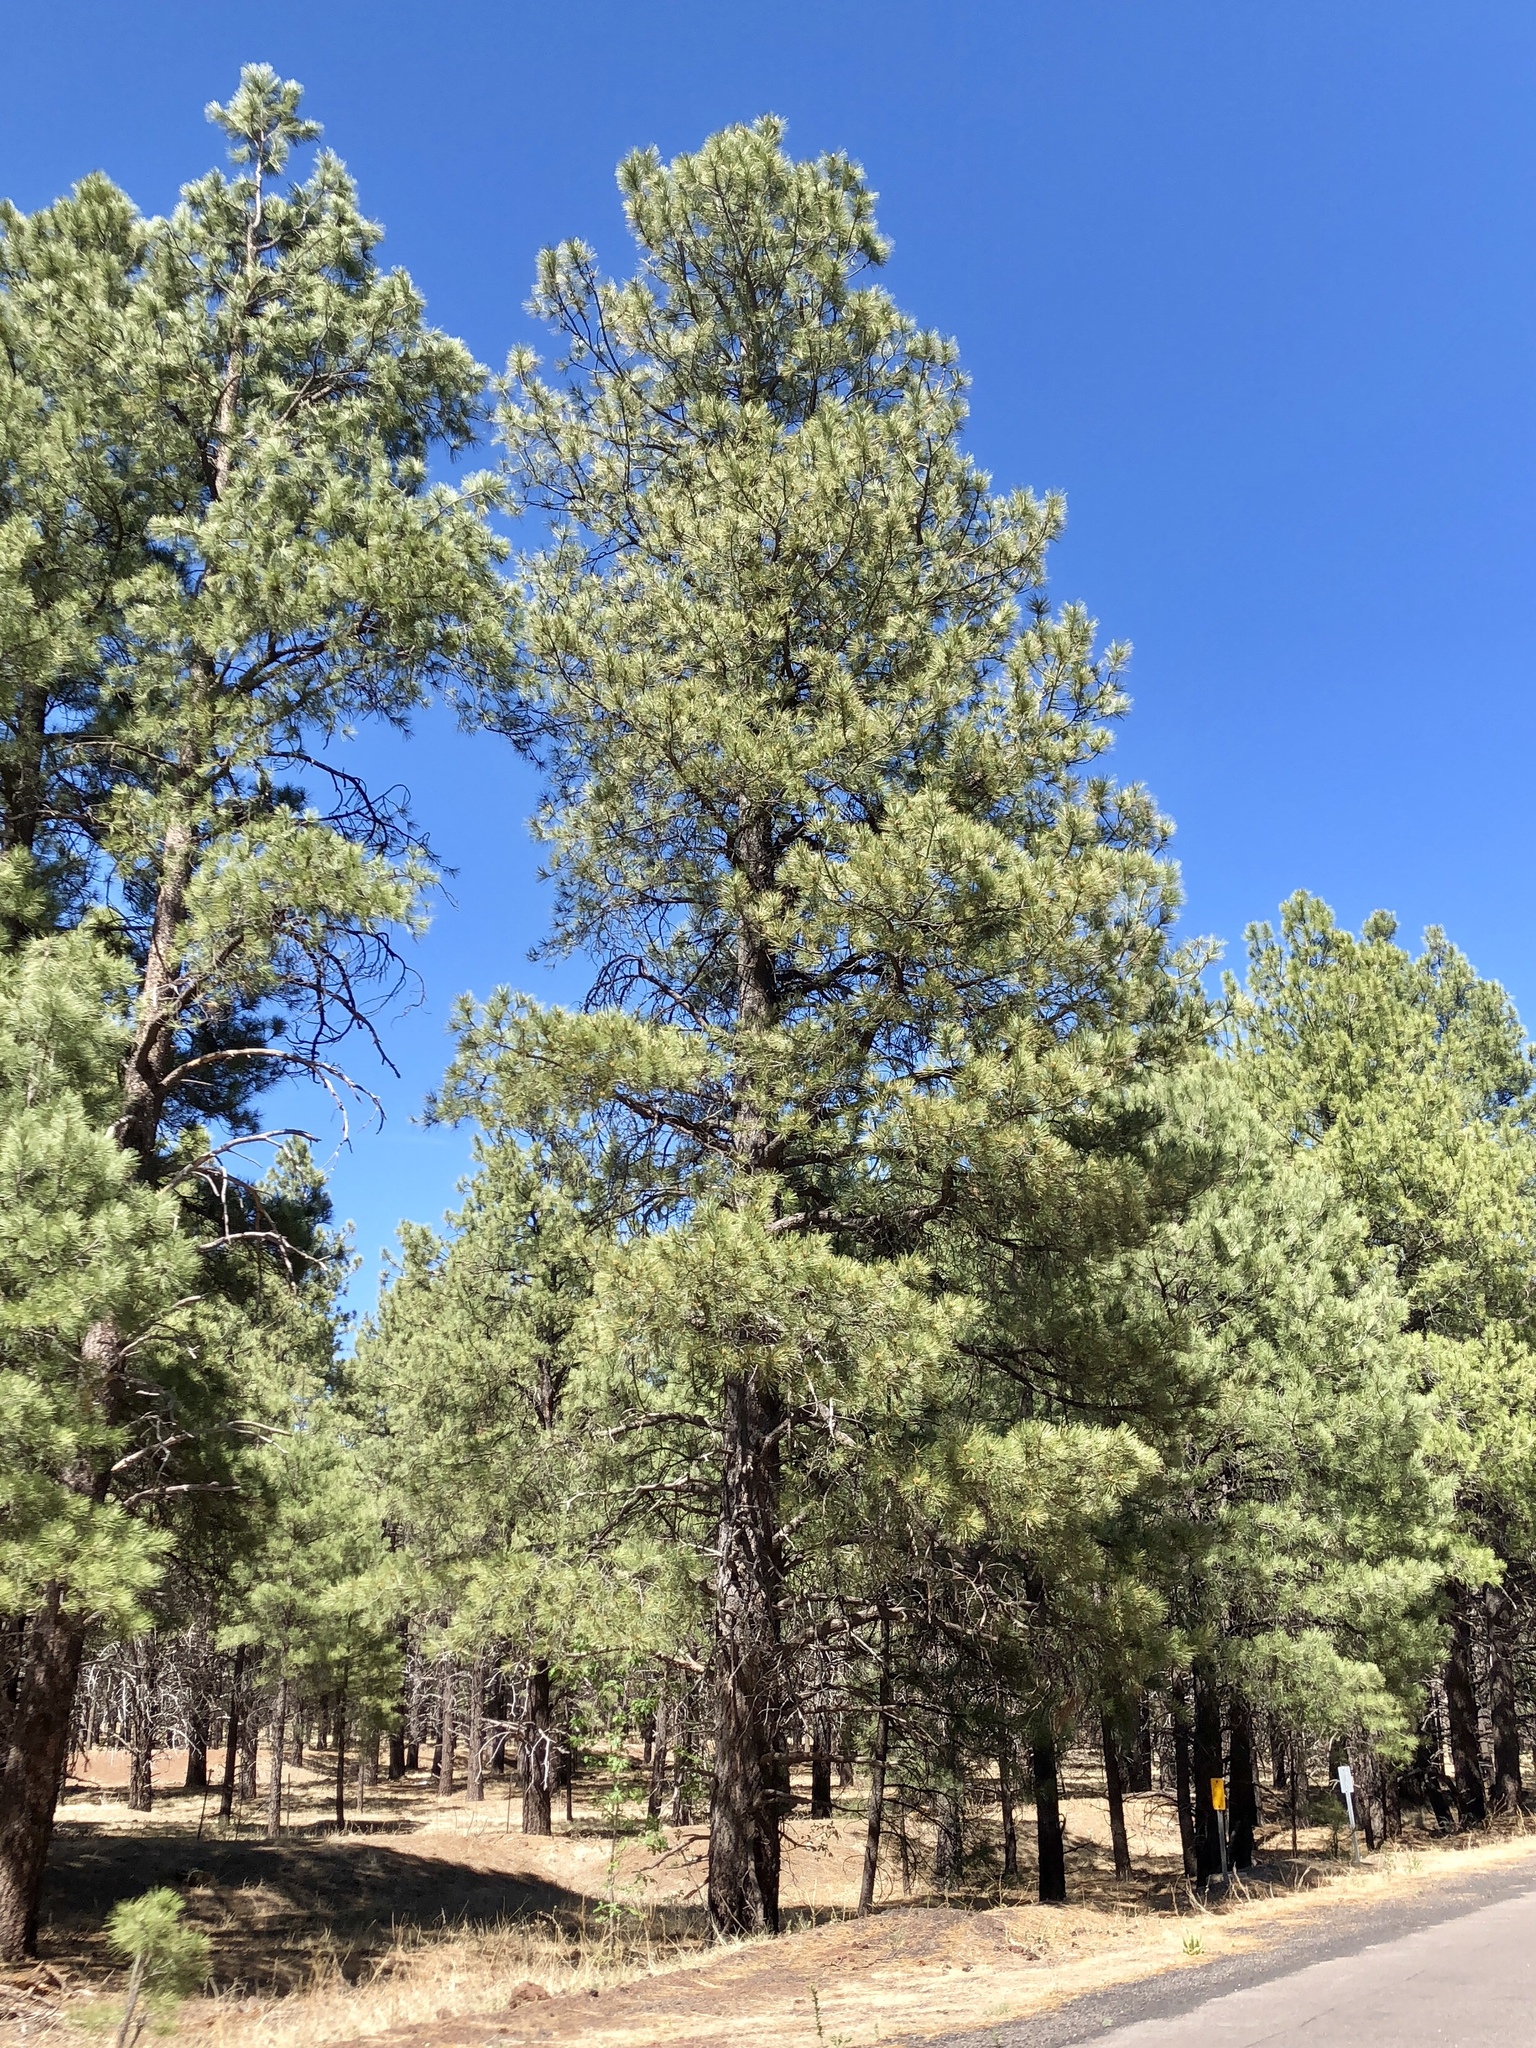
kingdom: Plantae
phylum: Tracheophyta
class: Pinopsida
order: Pinales
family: Pinaceae
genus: Pinus
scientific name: Pinus ponderosa
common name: Western yellow-pine
